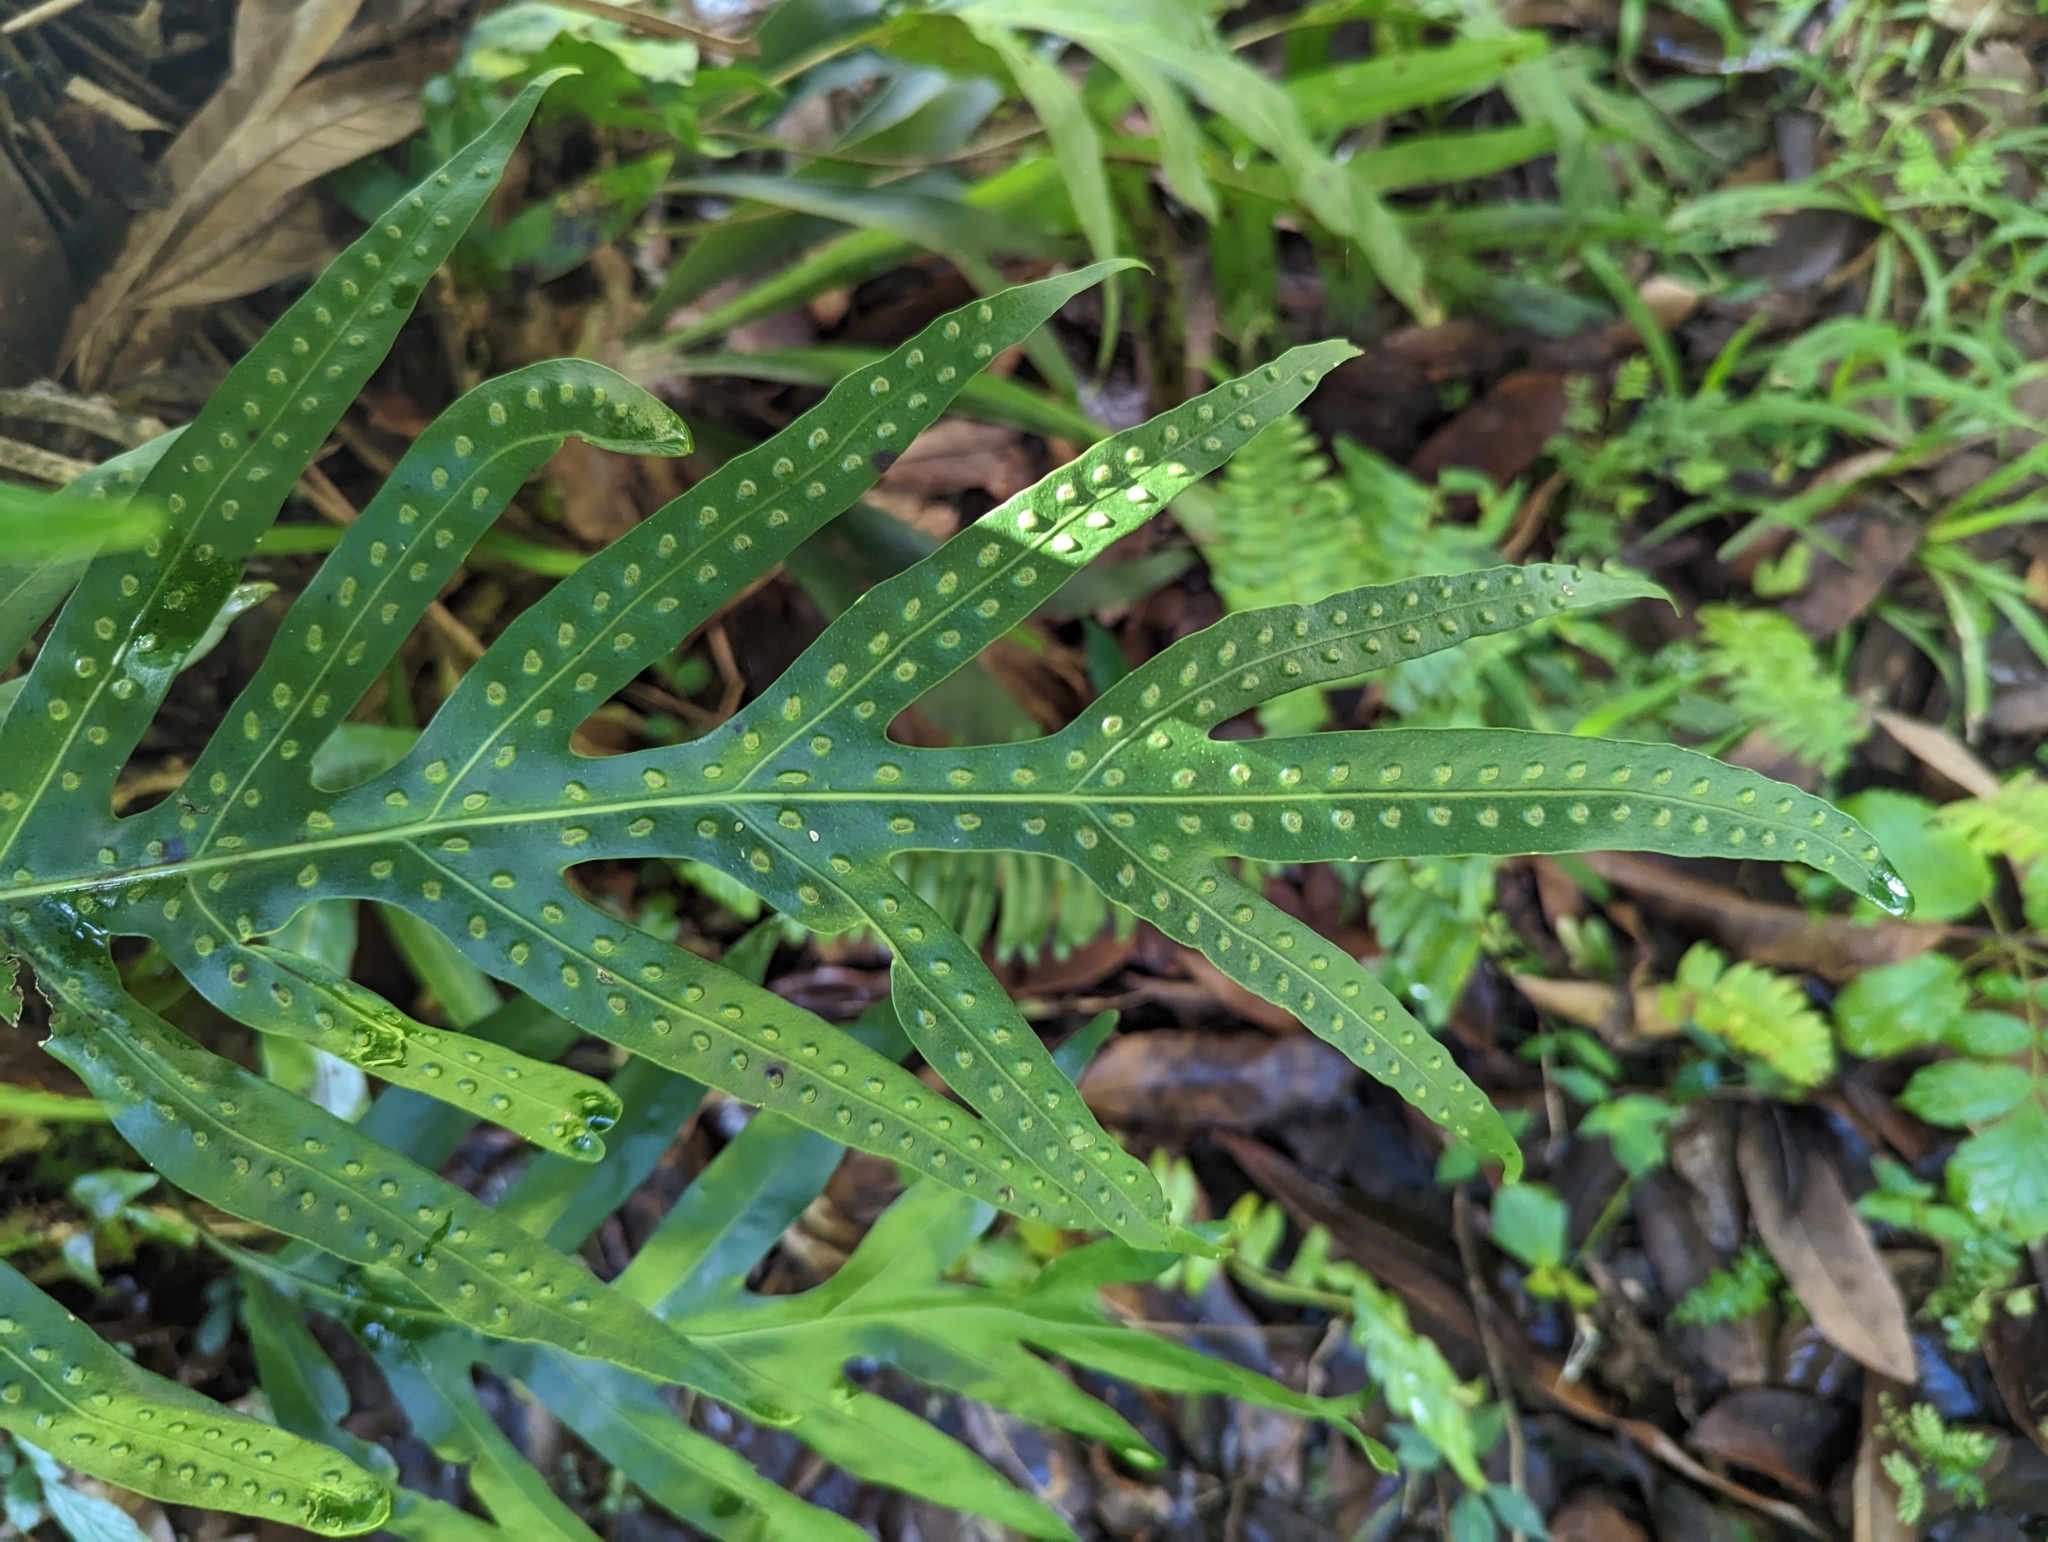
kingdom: Plantae
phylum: Tracheophyta
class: Polypodiopsida
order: Polypodiales
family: Polypodiaceae
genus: Microsorum
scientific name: Microsorum grossum
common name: Musk fern
